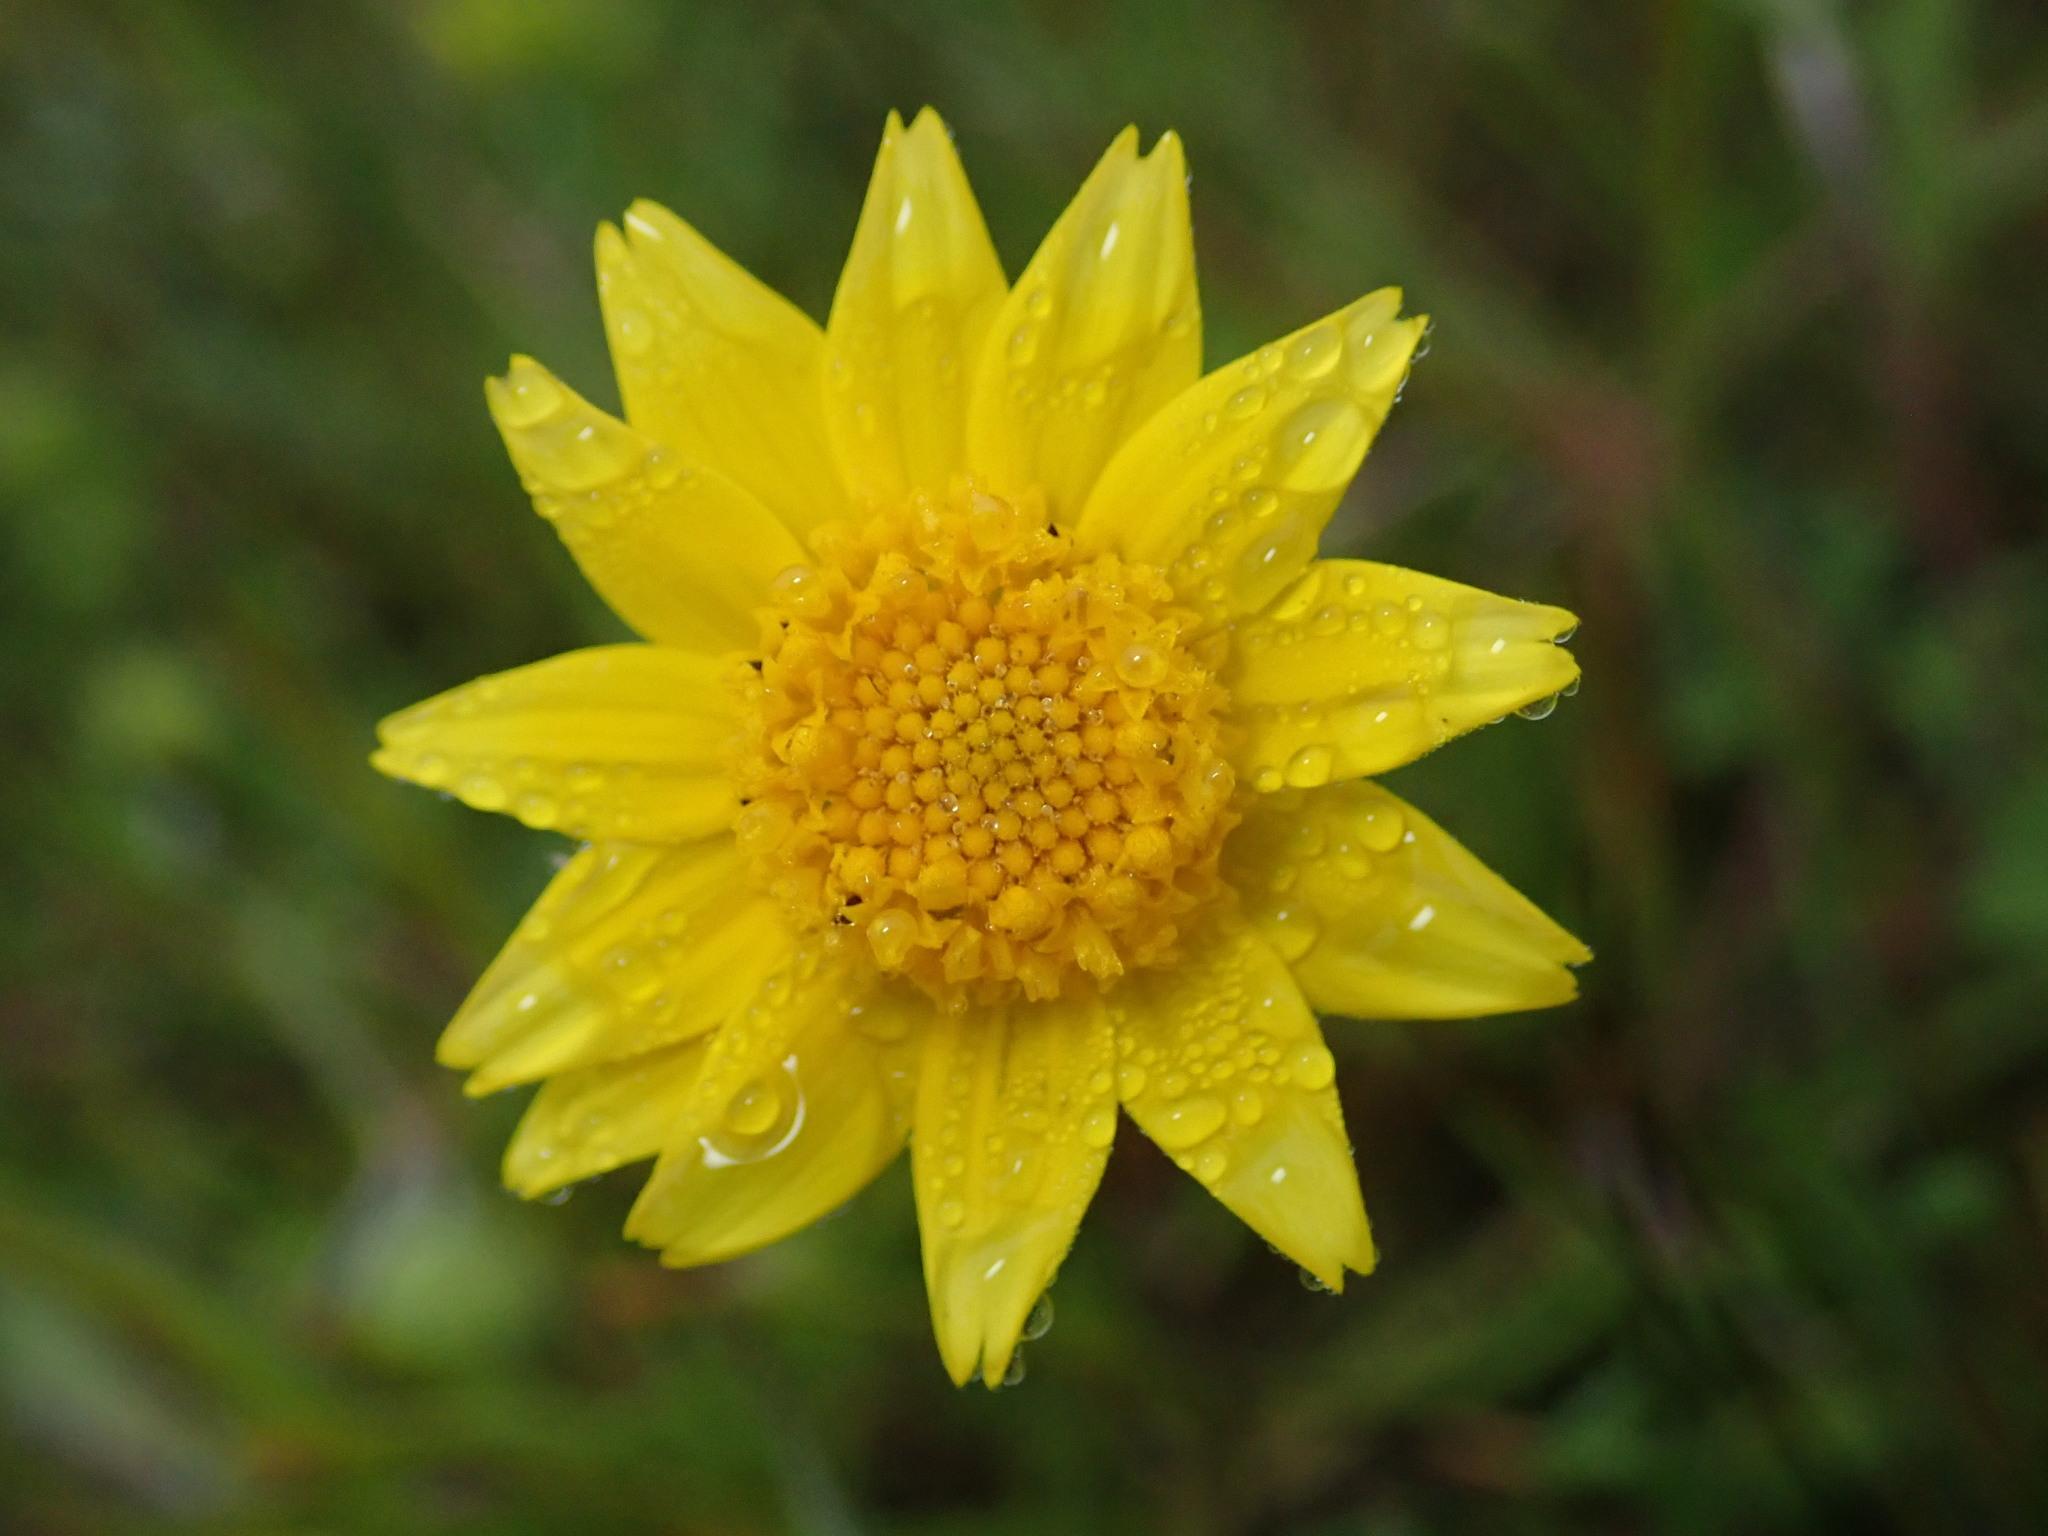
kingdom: Plantae
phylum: Tracheophyta
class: Magnoliopsida
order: Asterales
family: Asteraceae
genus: Lasthenia
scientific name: Lasthenia californica
